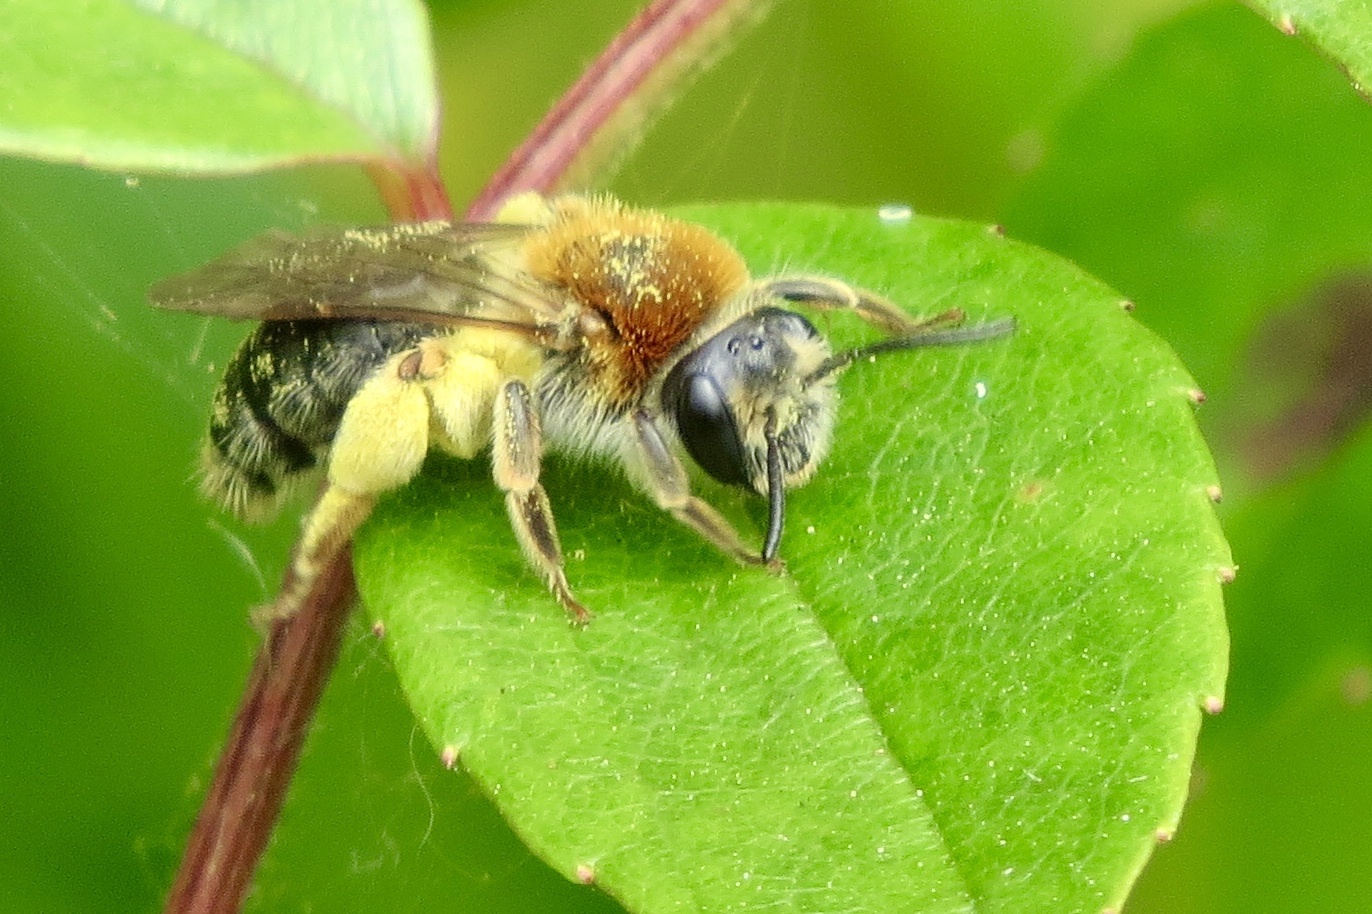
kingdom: Animalia
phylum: Arthropoda
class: Insecta
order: Hymenoptera
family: Andrenidae
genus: Andrena
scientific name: Andrena haemorrhoa
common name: Early mining bee
